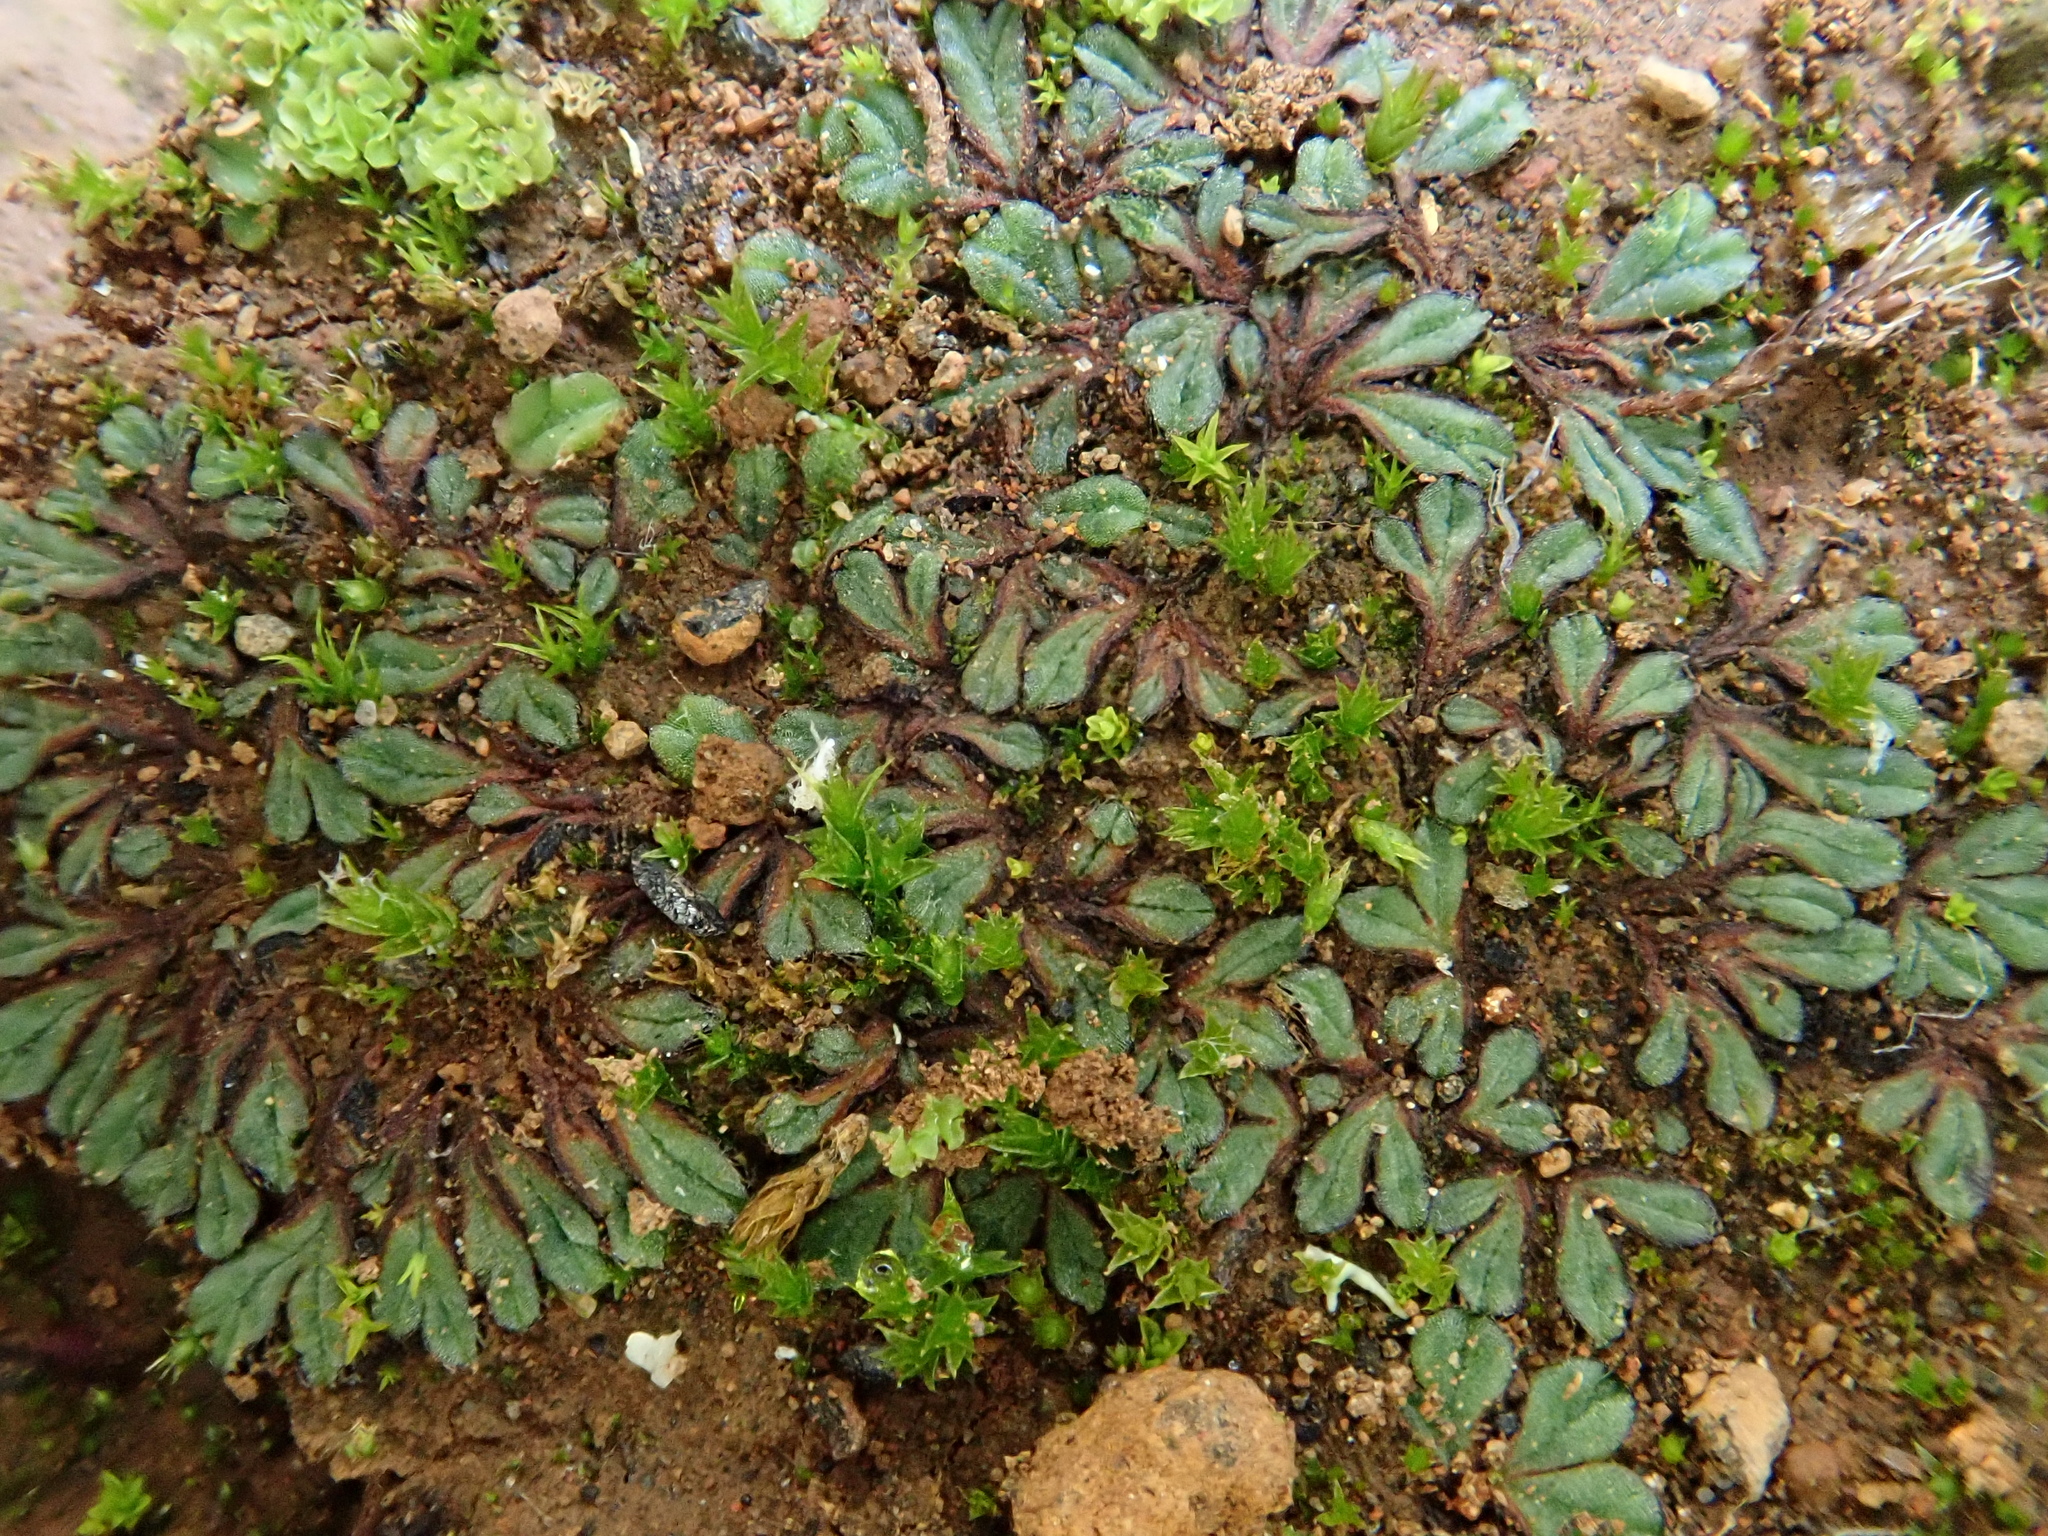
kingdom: Plantae
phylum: Marchantiophyta
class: Marchantiopsida
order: Marchantiales
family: Ricciaceae
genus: Riccia
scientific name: Riccia nigrella
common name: Black crystalwort
